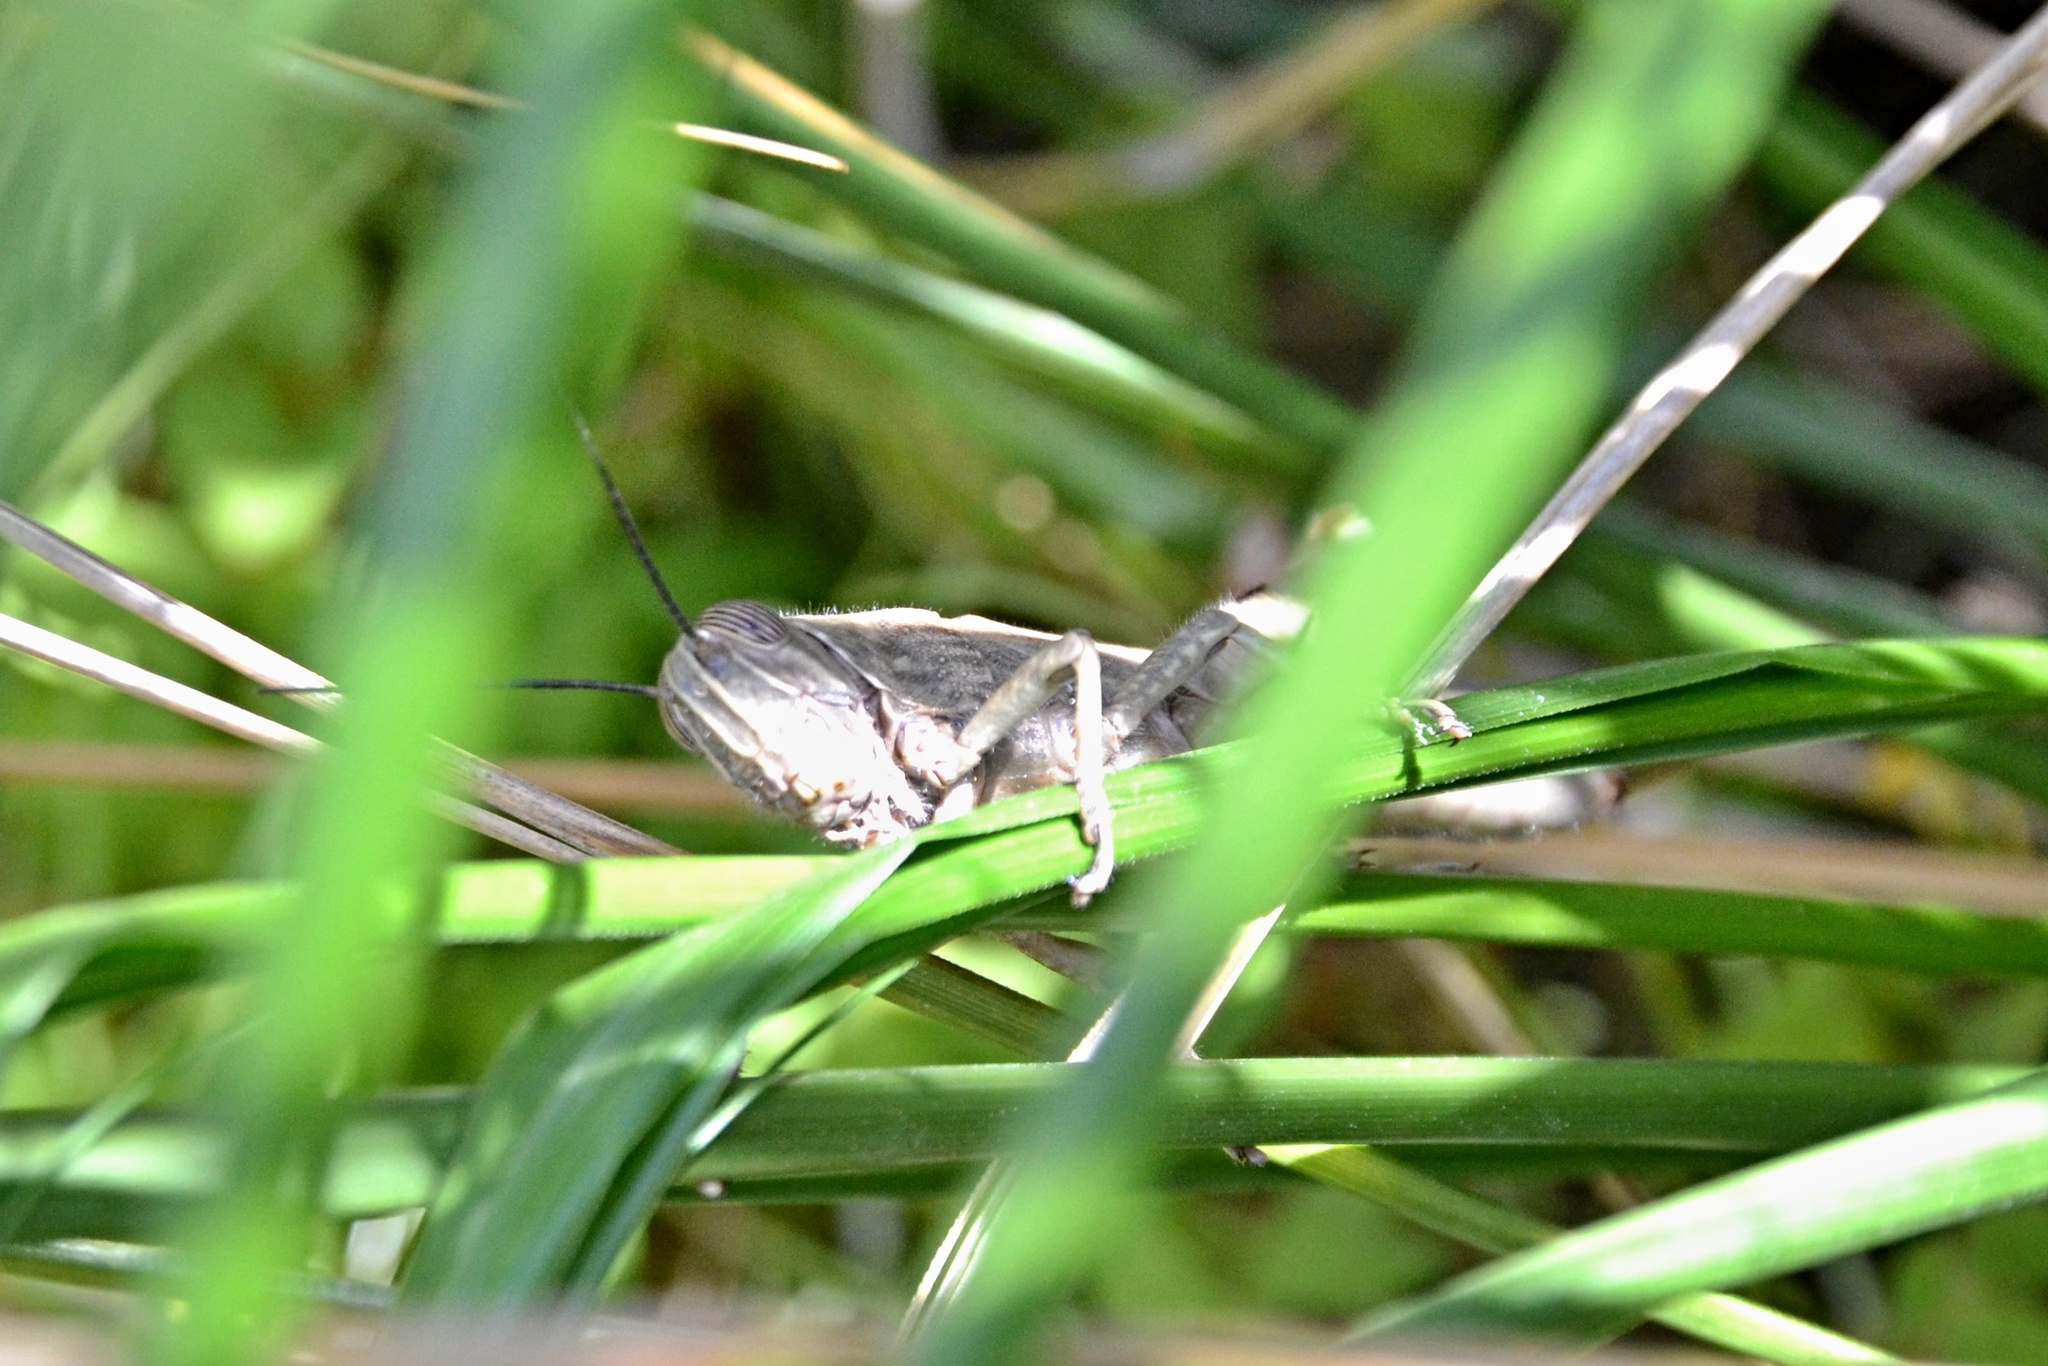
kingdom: Animalia
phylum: Arthropoda
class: Insecta
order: Orthoptera
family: Acrididae
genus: Anacridium
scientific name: Anacridium aegyptium
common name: Egyptian grasshopper
